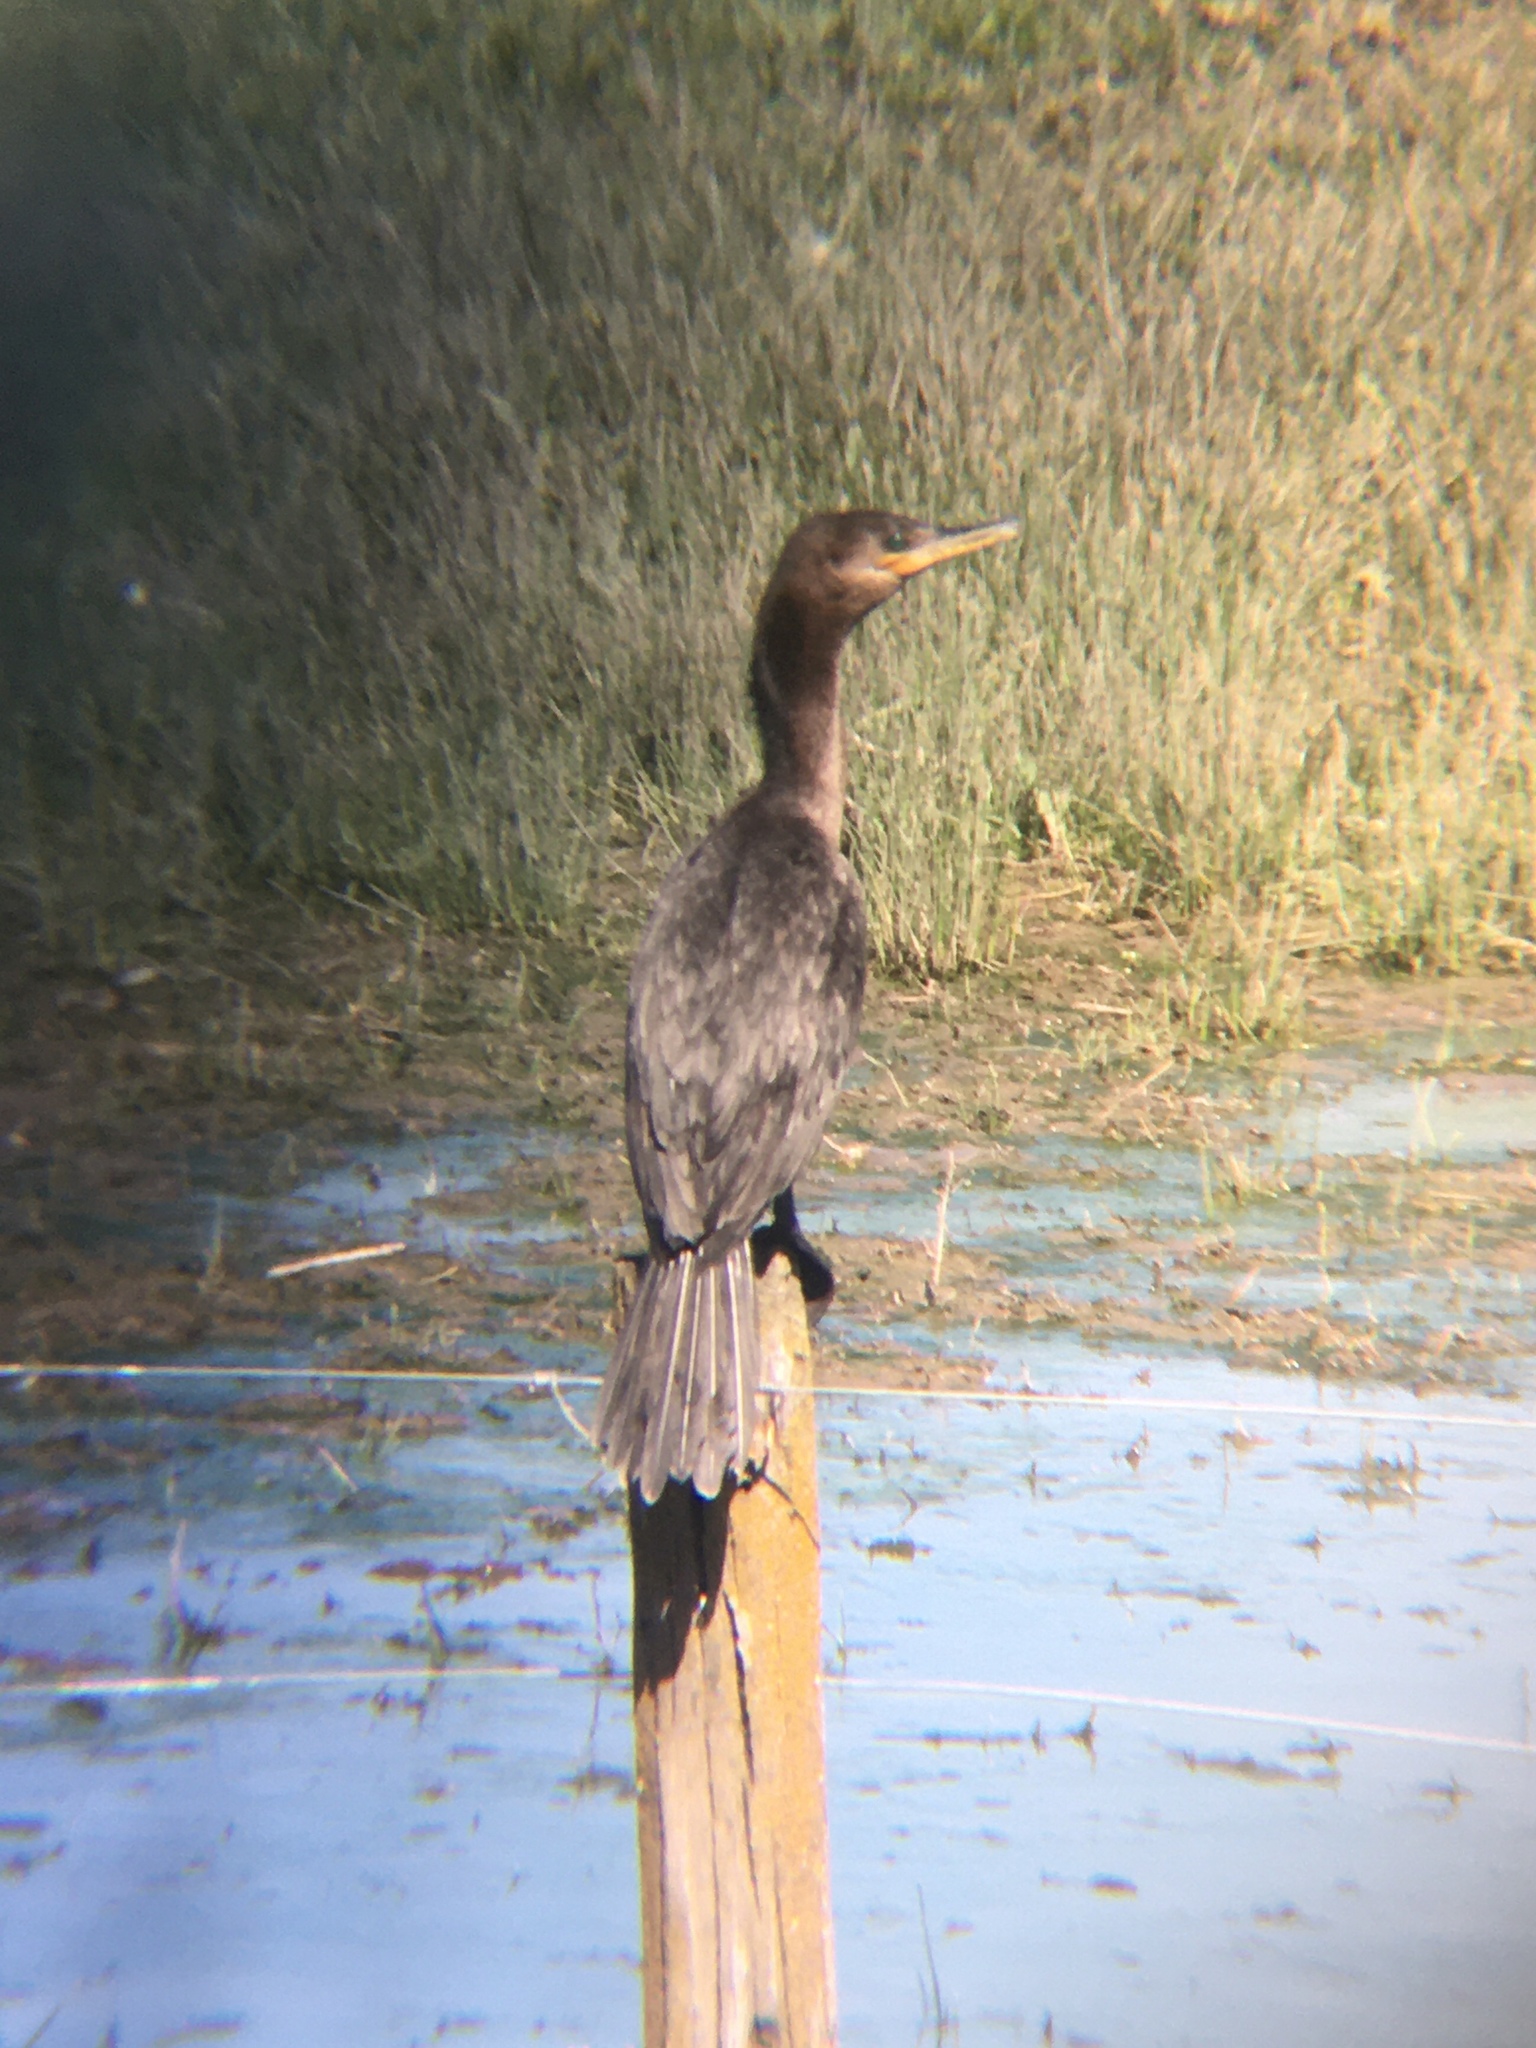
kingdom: Animalia
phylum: Chordata
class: Aves
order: Suliformes
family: Phalacrocoracidae
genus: Phalacrocorax
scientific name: Phalacrocorax brasilianus
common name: Neotropic cormorant
